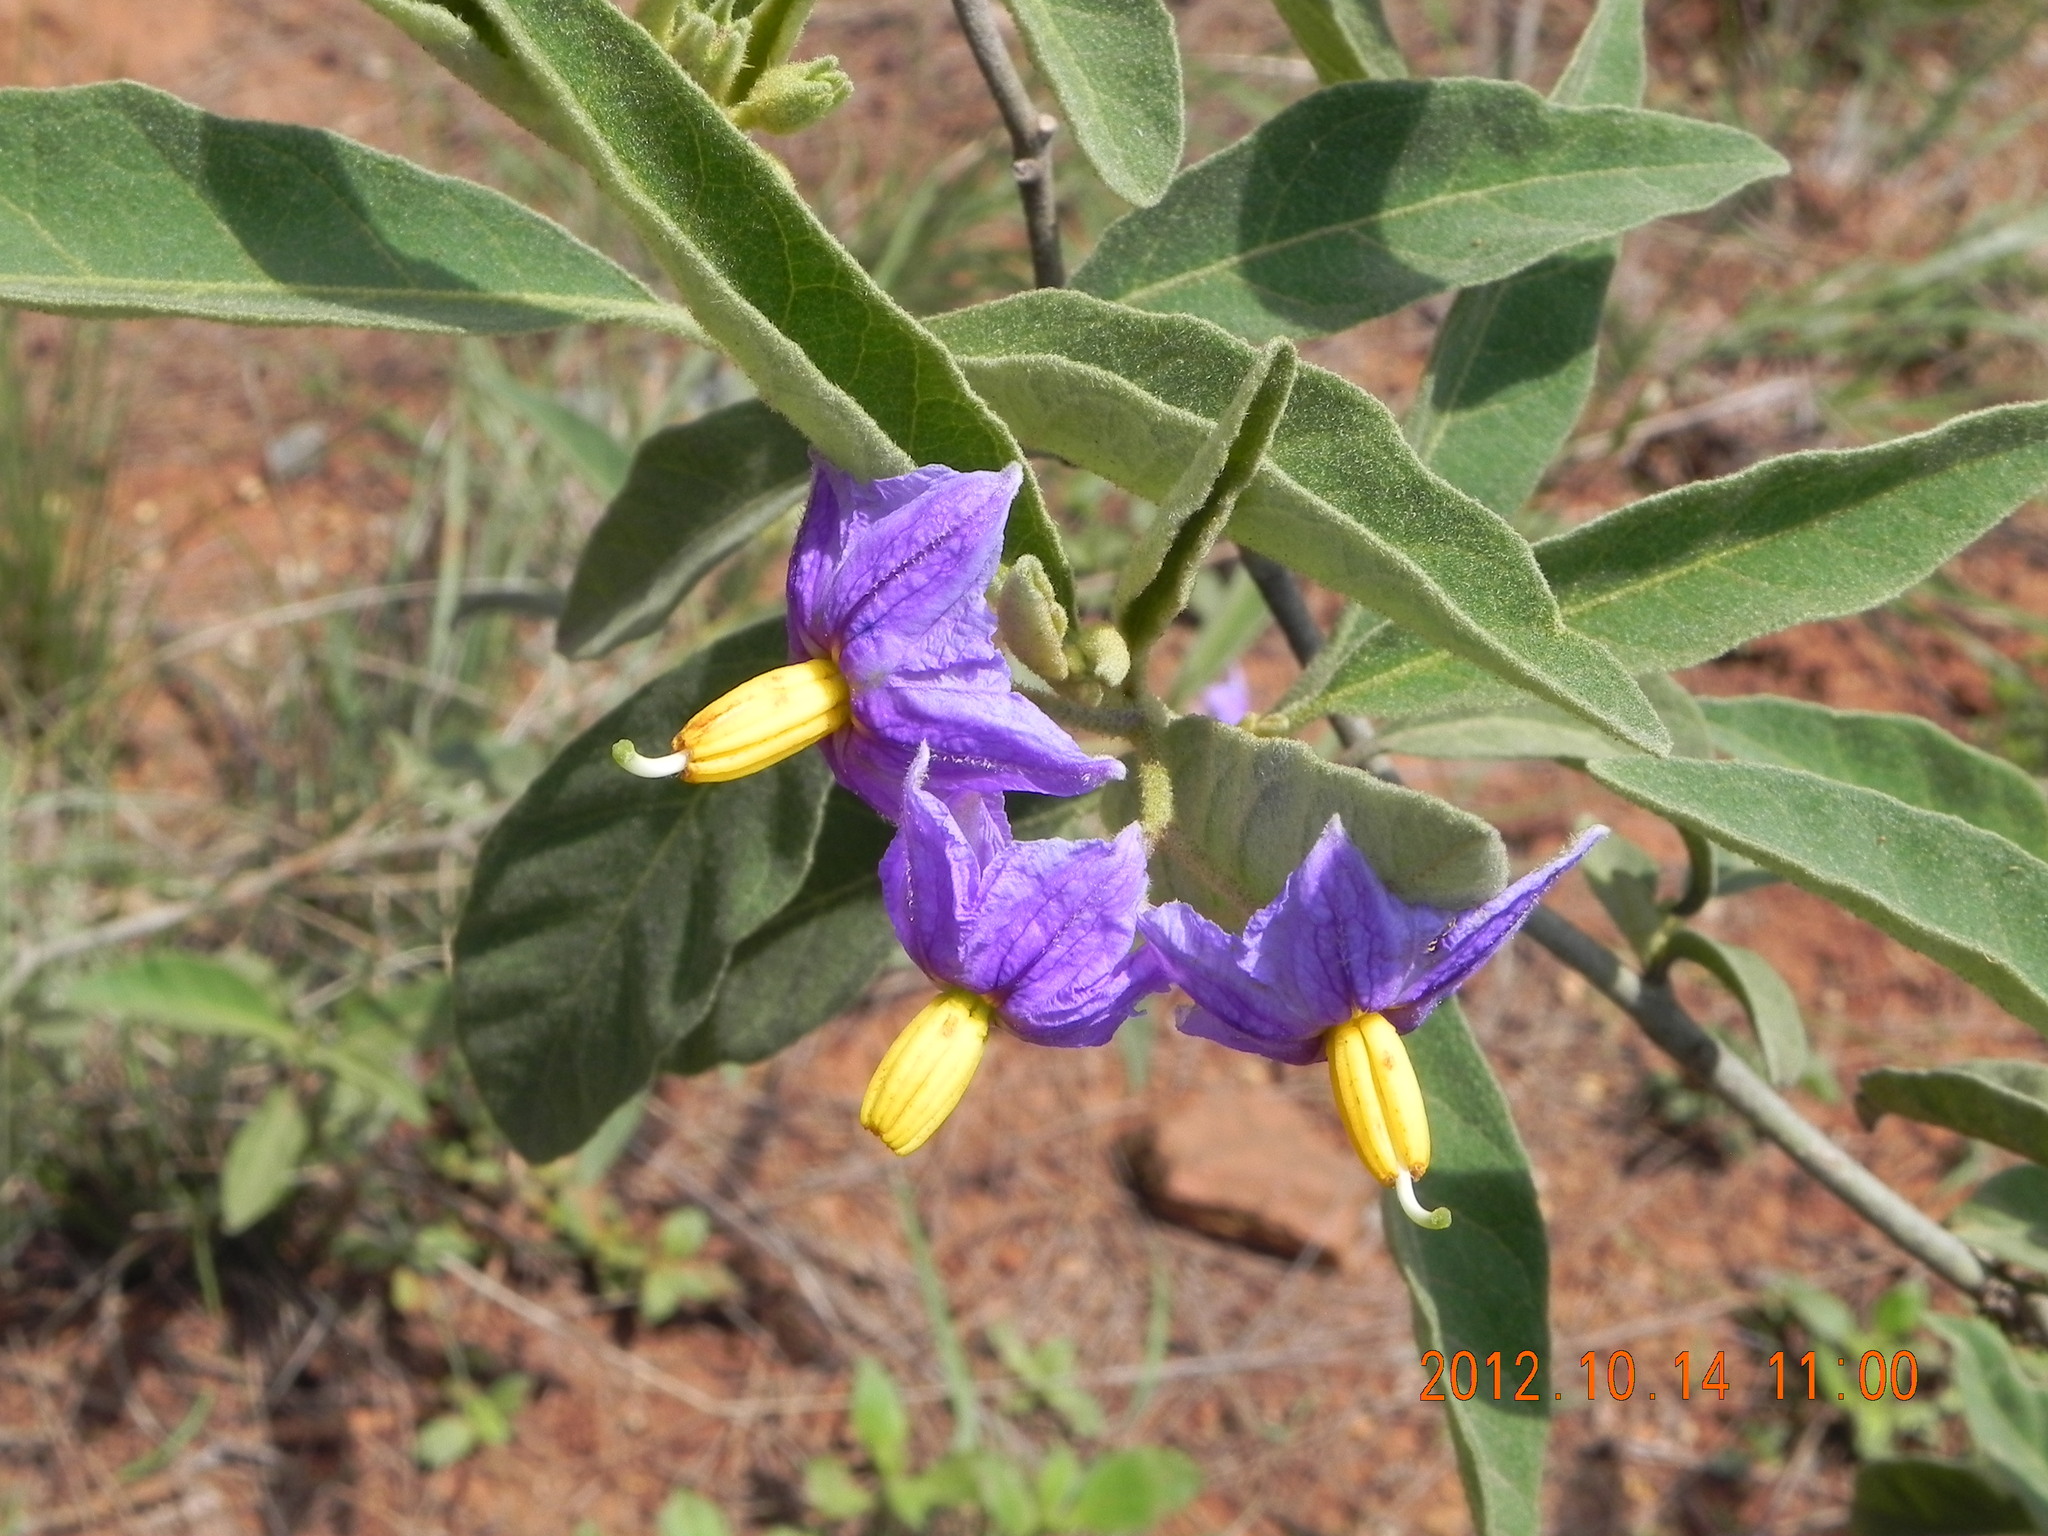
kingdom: Plantae
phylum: Tracheophyta
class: Magnoliopsida
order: Solanales
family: Solanaceae
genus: Solanum
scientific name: Solanum campylacanthum
